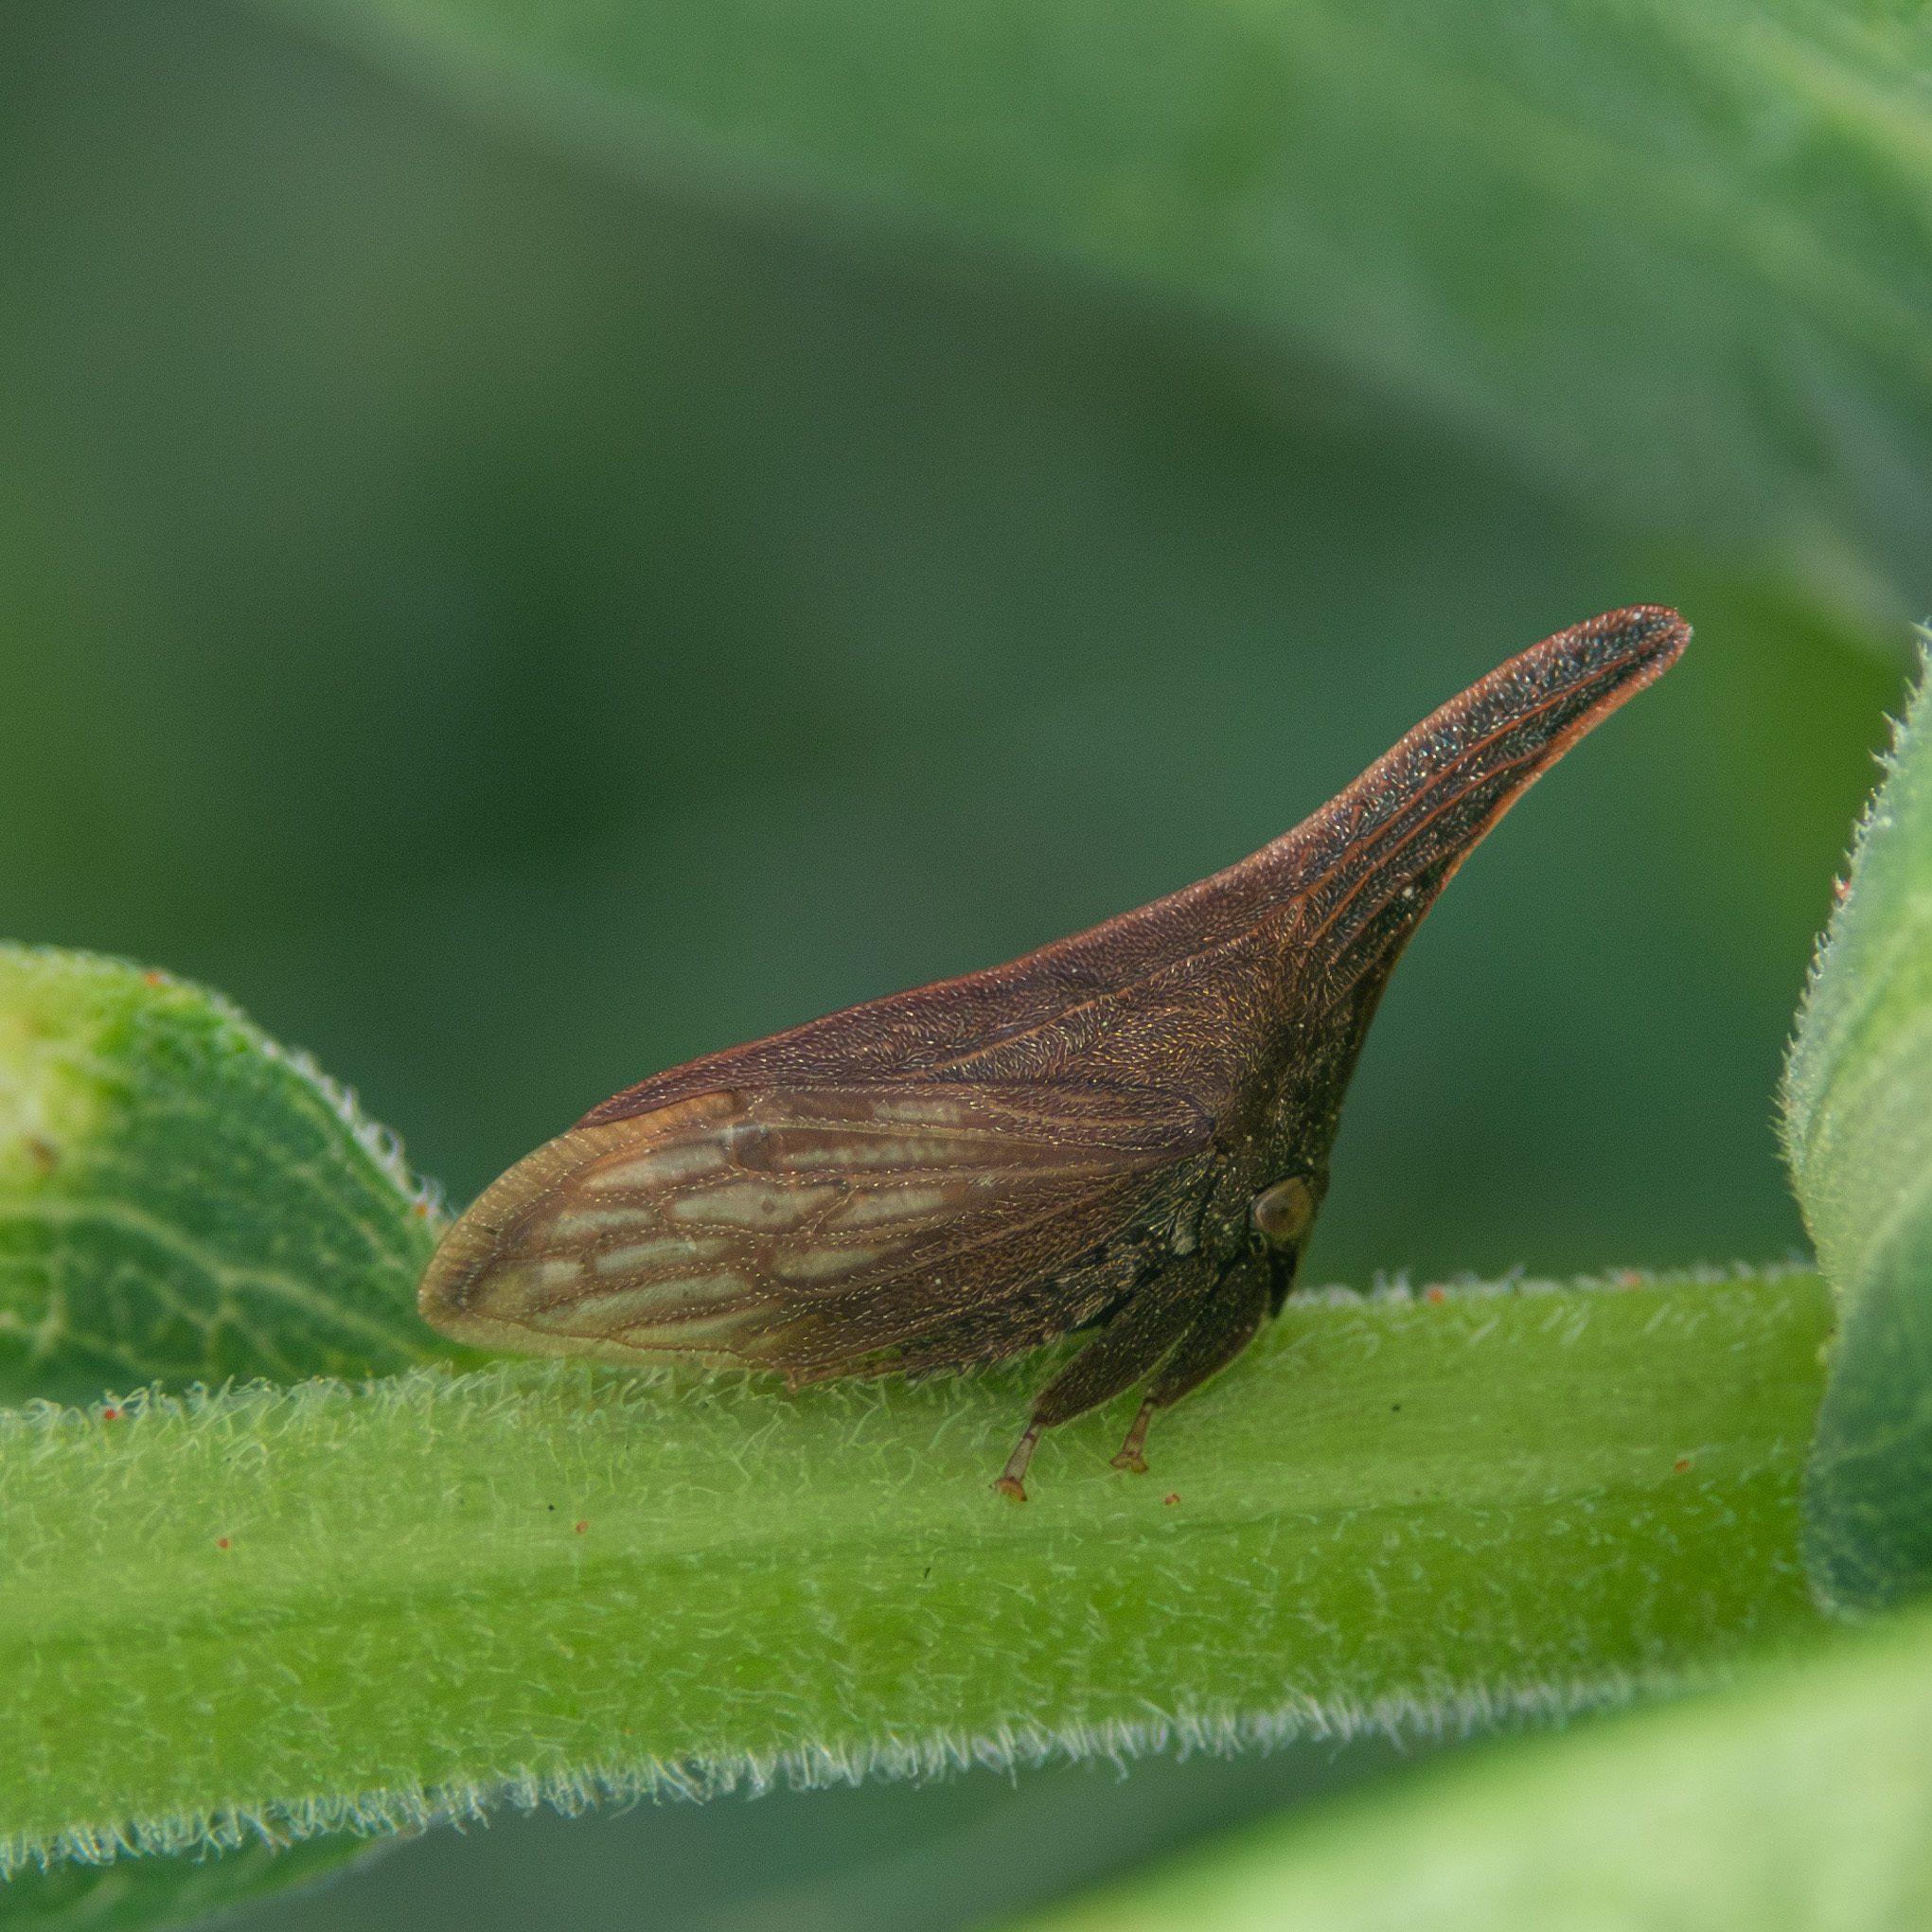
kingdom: Animalia
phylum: Arthropoda
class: Insecta
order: Hemiptera
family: Membracidae
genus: Enchenopa
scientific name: Enchenopa latipes
